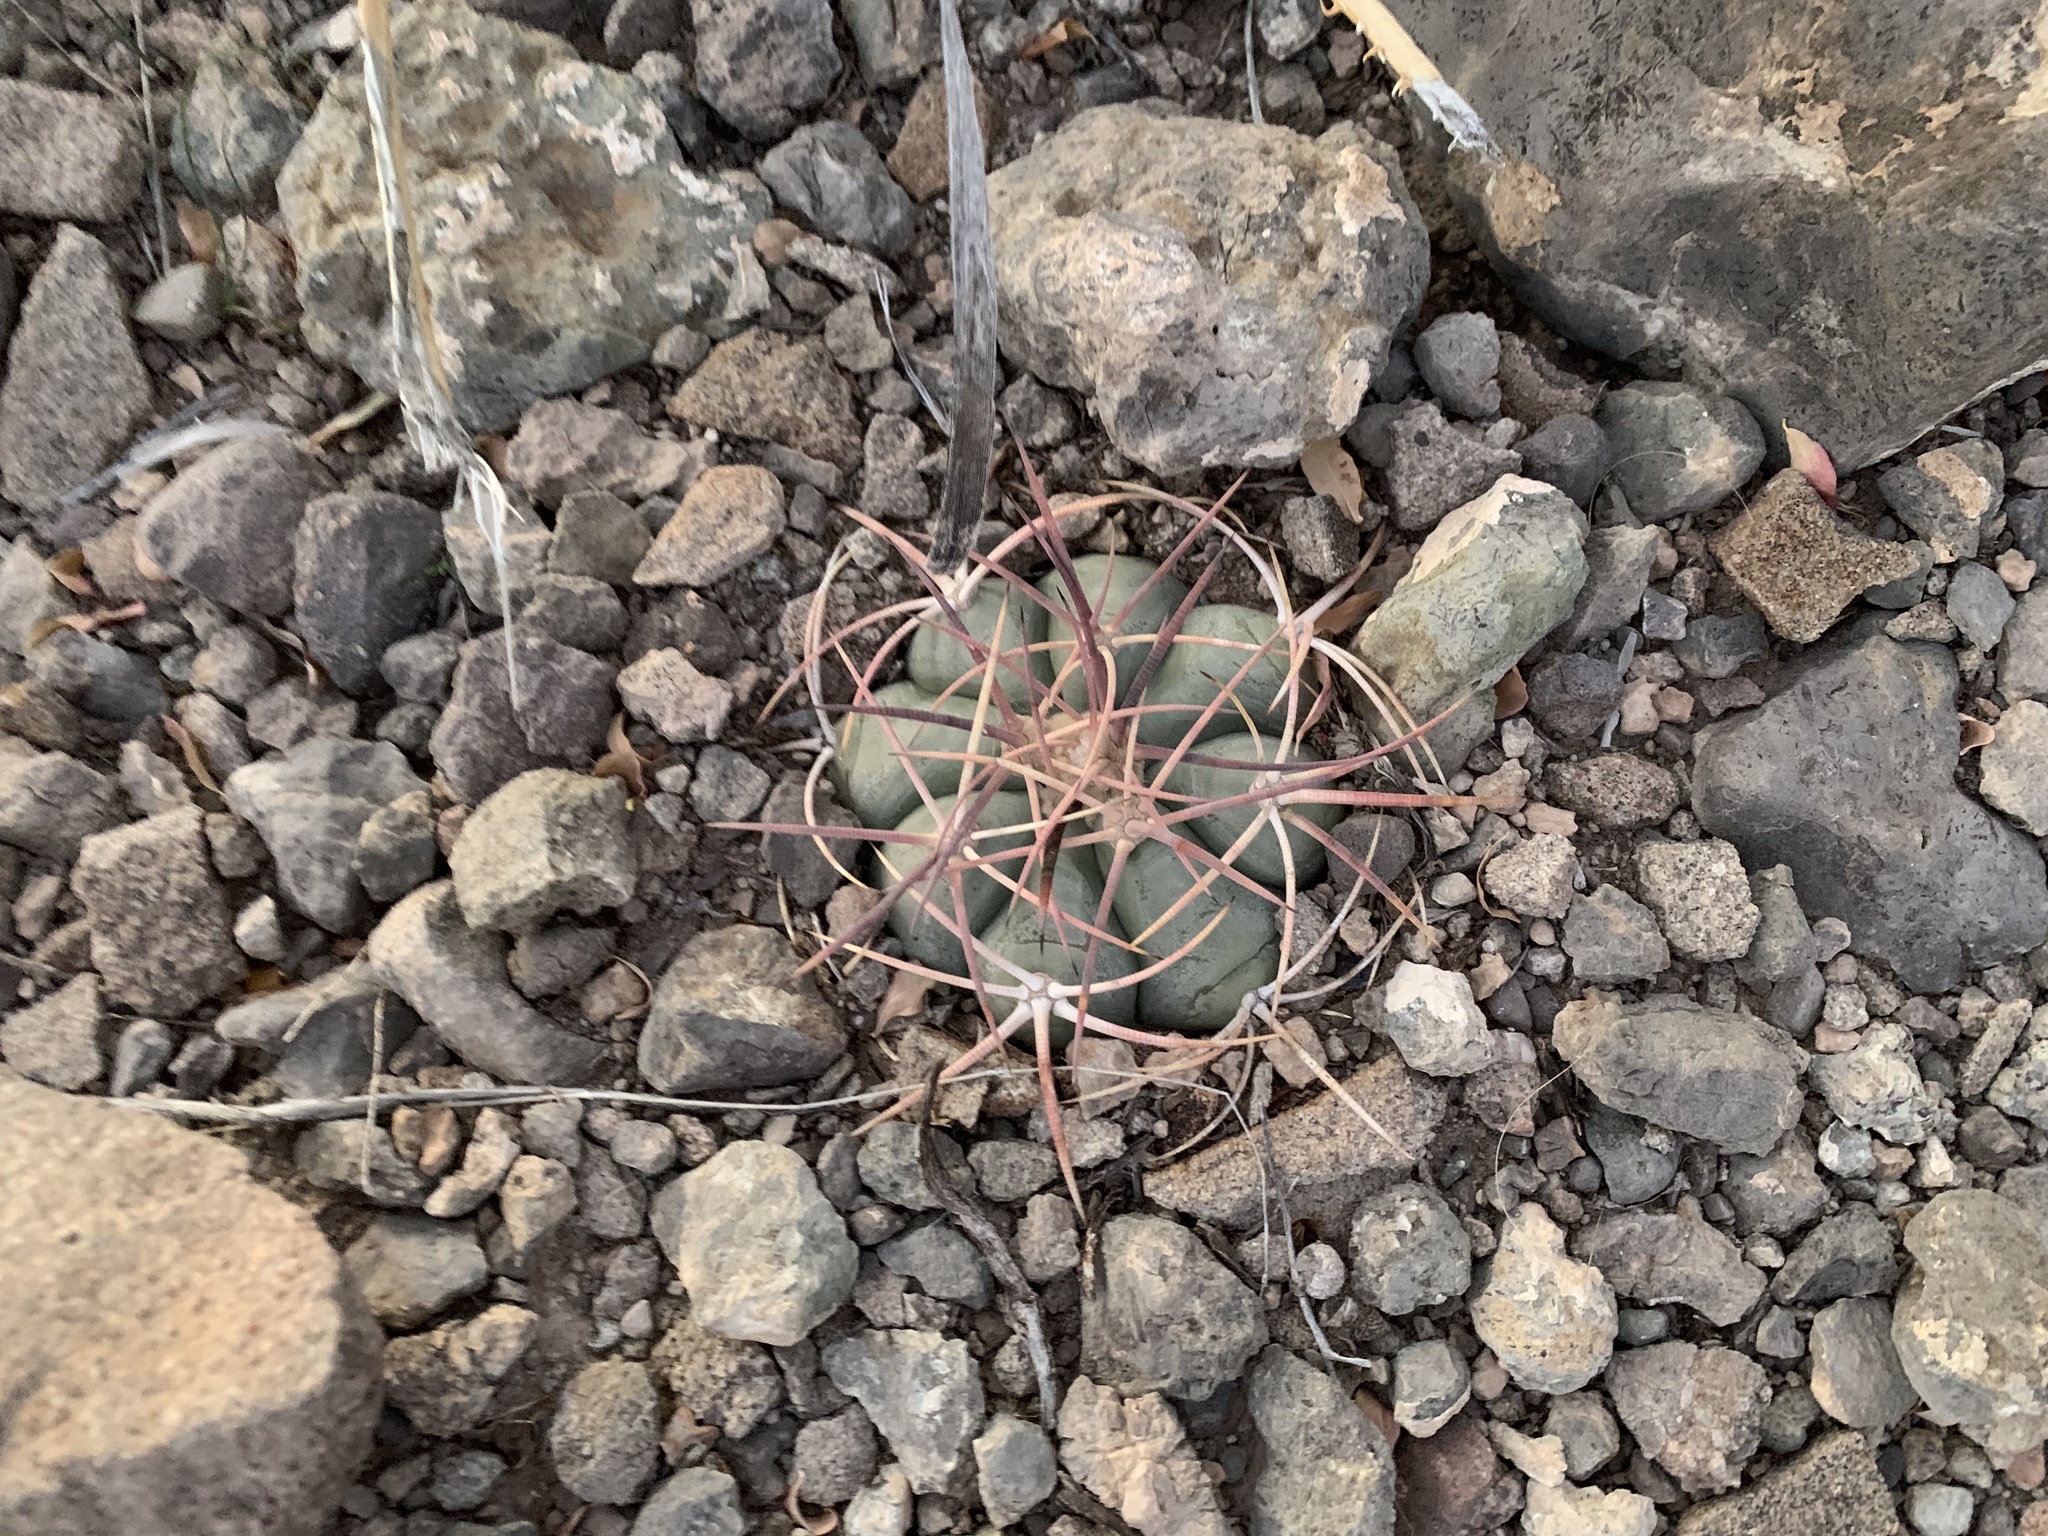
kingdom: Plantae
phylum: Tracheophyta
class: Magnoliopsida
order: Caryophyllales
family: Cactaceae
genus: Echinocactus
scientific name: Echinocactus horizonthalonius
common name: Devilshead
